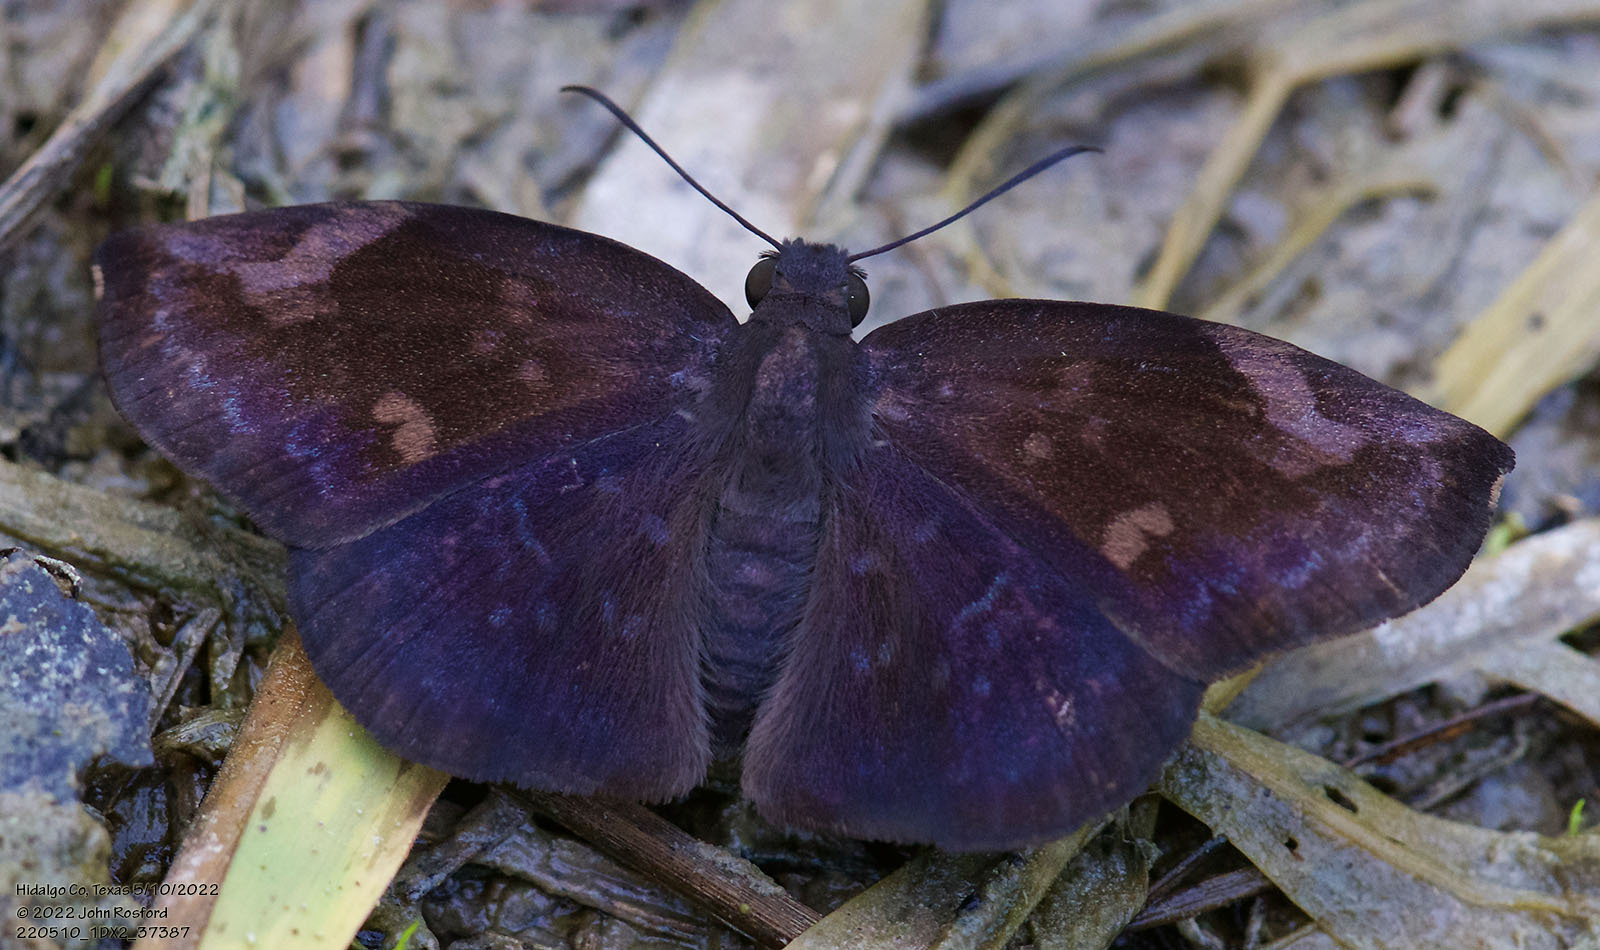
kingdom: Animalia
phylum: Arthropoda
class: Insecta
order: Lepidoptera
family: Hesperiidae
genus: Achlyodes
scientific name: Achlyodes thraso
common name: Sickle-winged skipper
